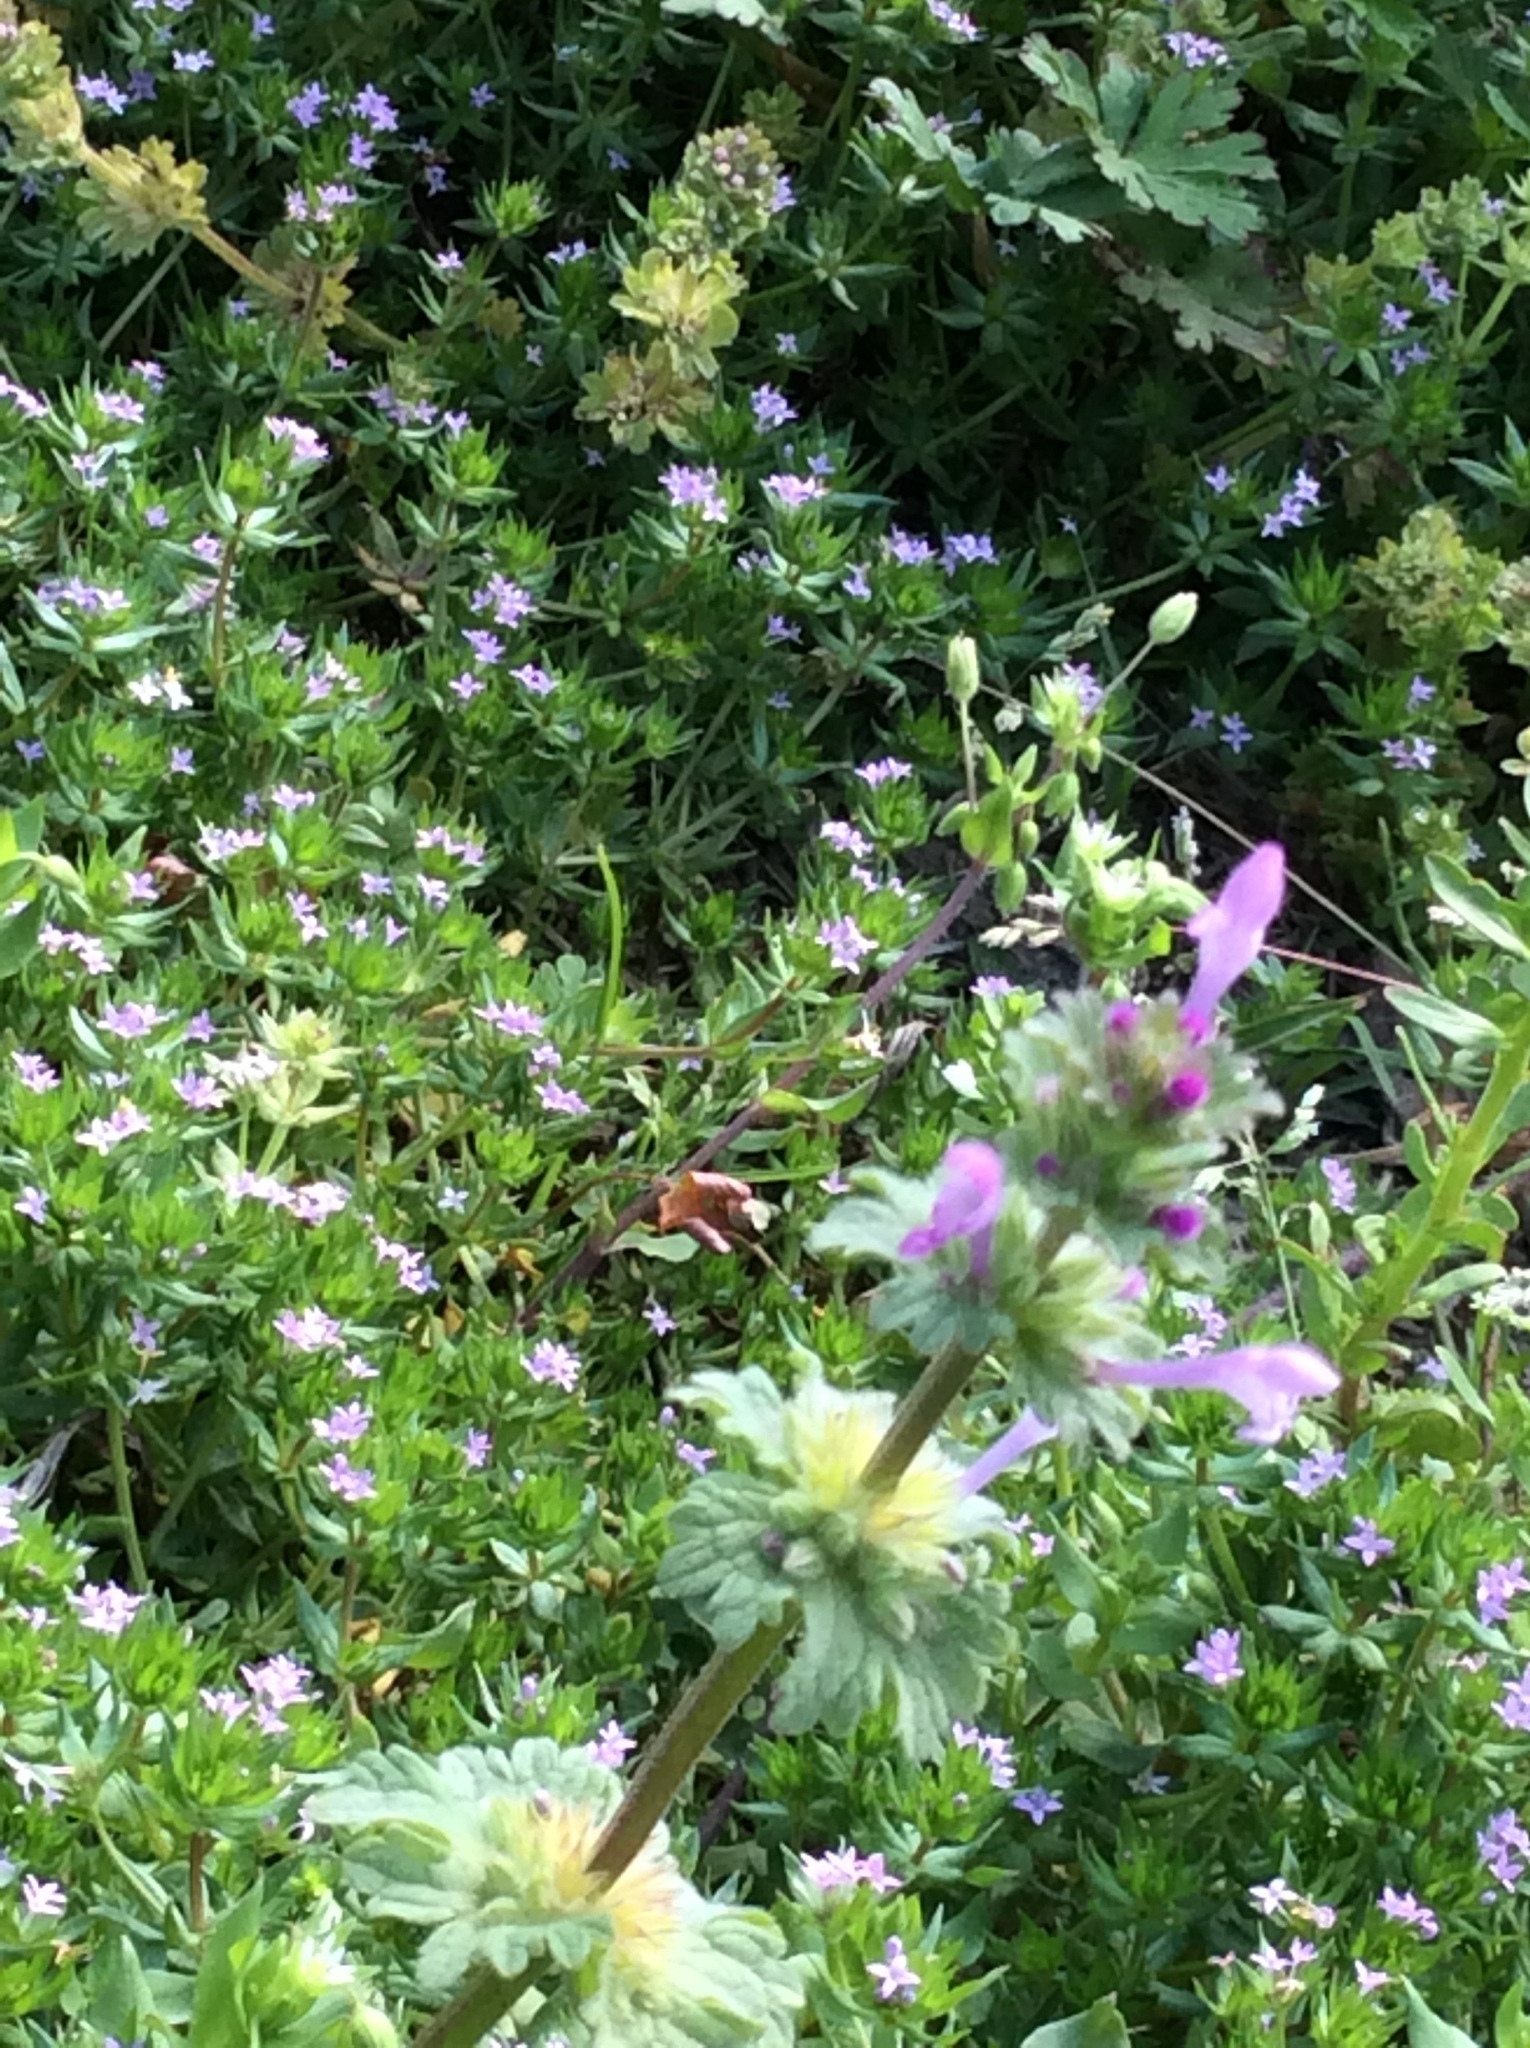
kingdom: Plantae
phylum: Tracheophyta
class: Magnoliopsida
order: Lamiales
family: Lamiaceae
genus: Lamium
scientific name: Lamium amplexicaule
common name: Henbit dead-nettle
